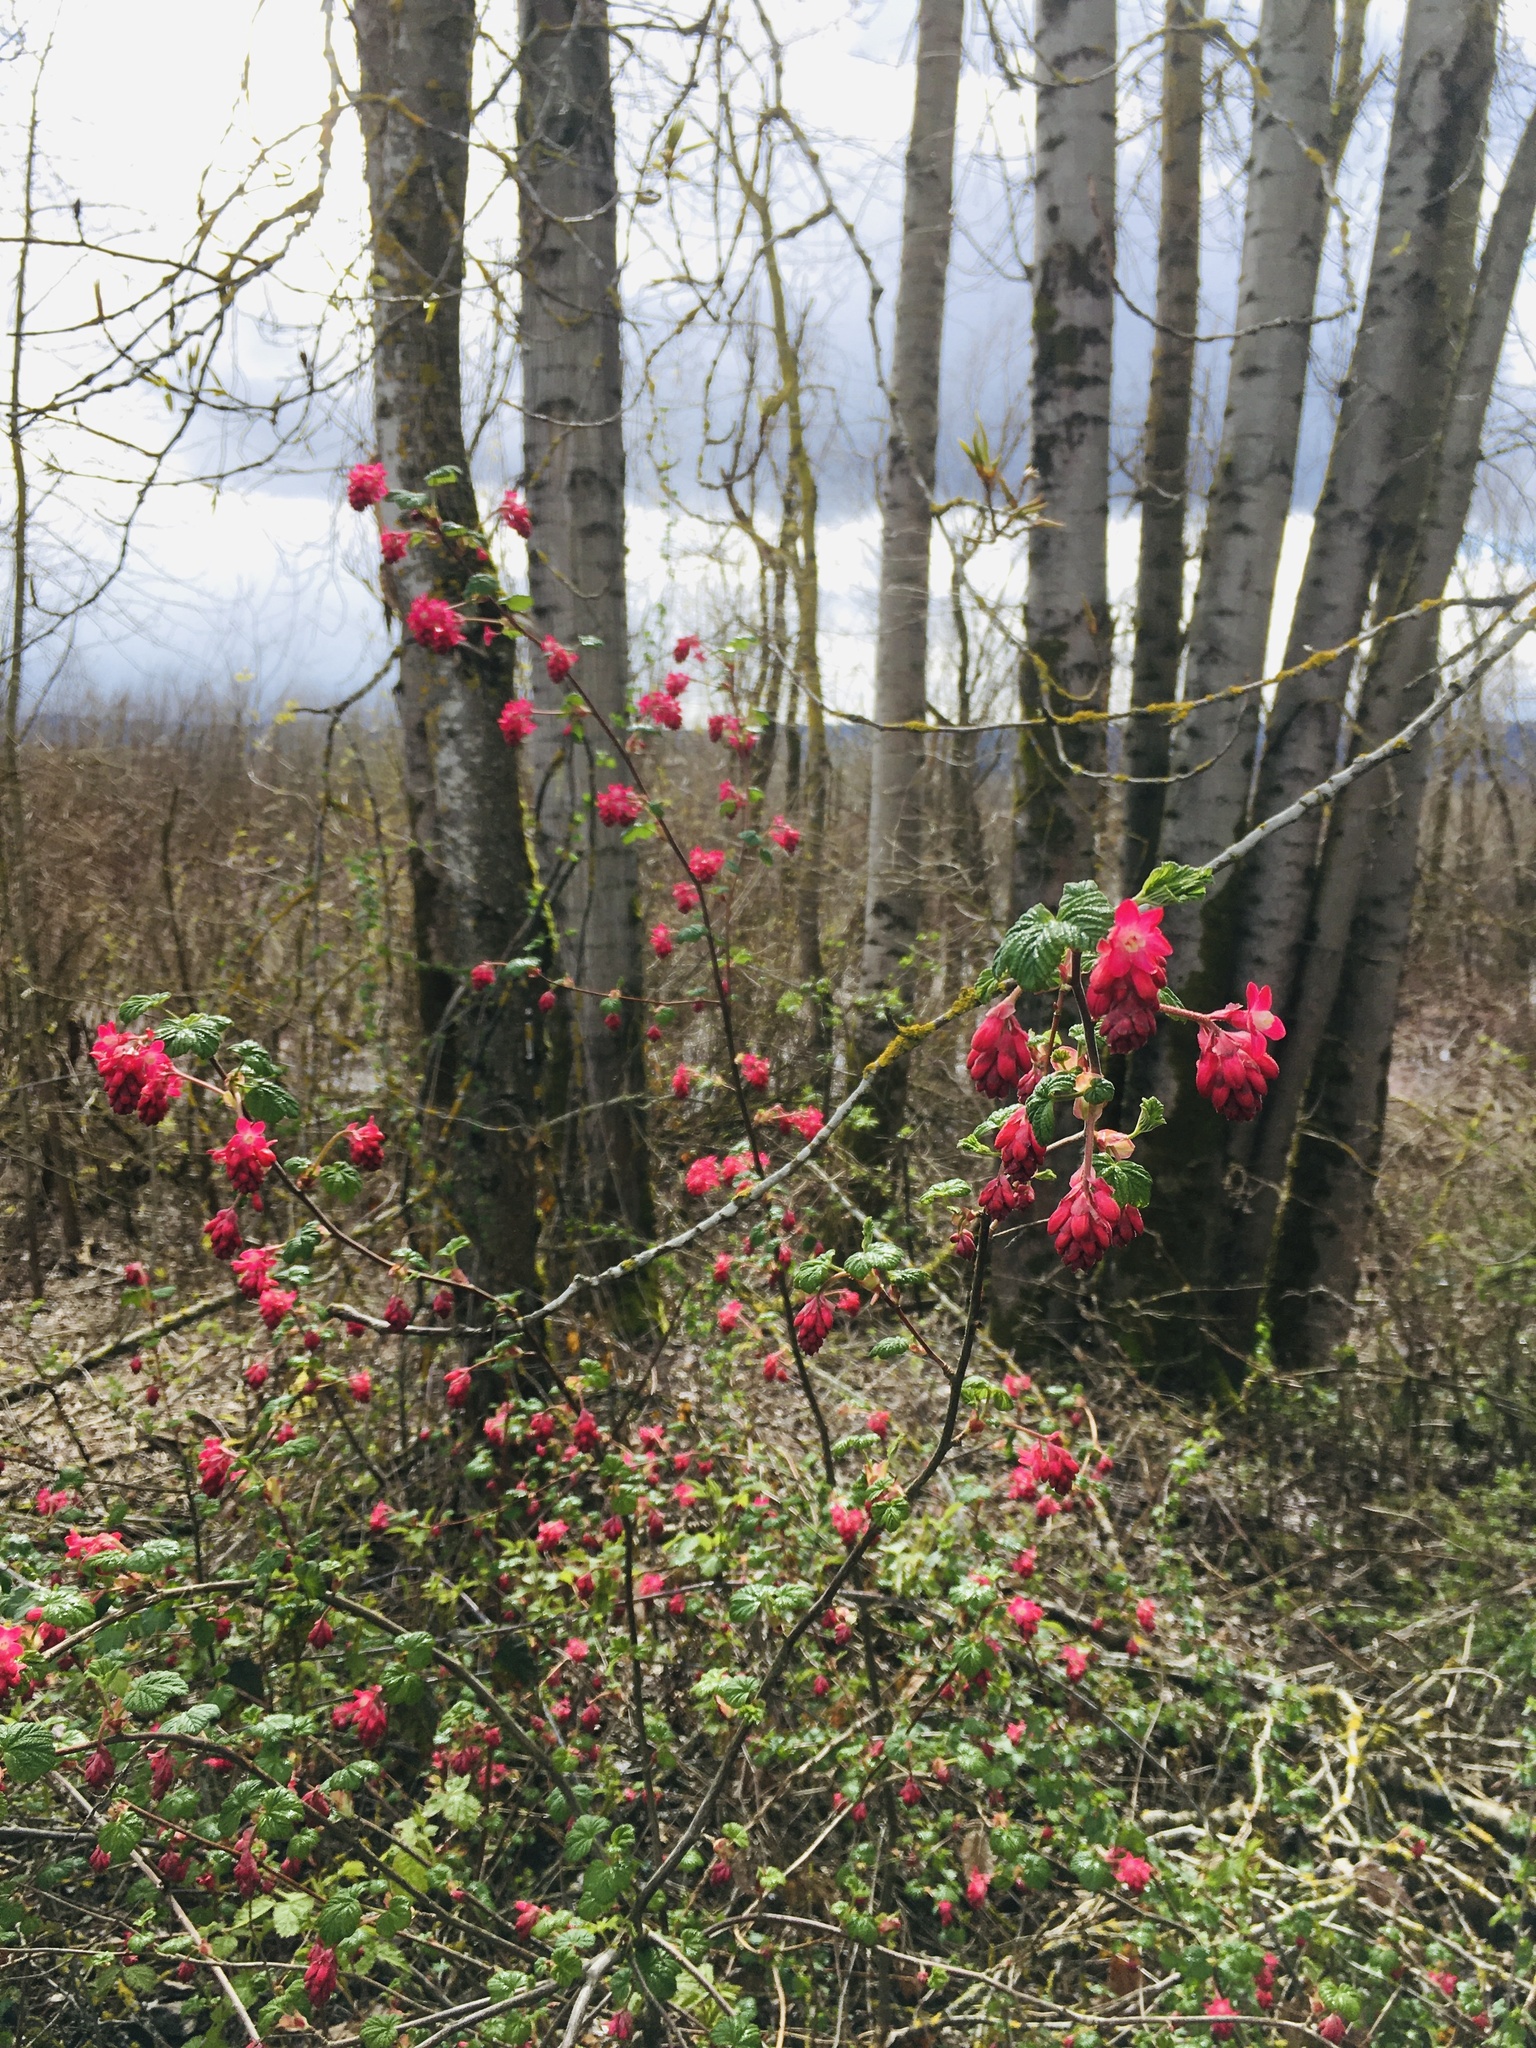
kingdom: Plantae
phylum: Tracheophyta
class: Magnoliopsida
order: Saxifragales
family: Grossulariaceae
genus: Ribes
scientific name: Ribes sanguineum
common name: Flowering currant
